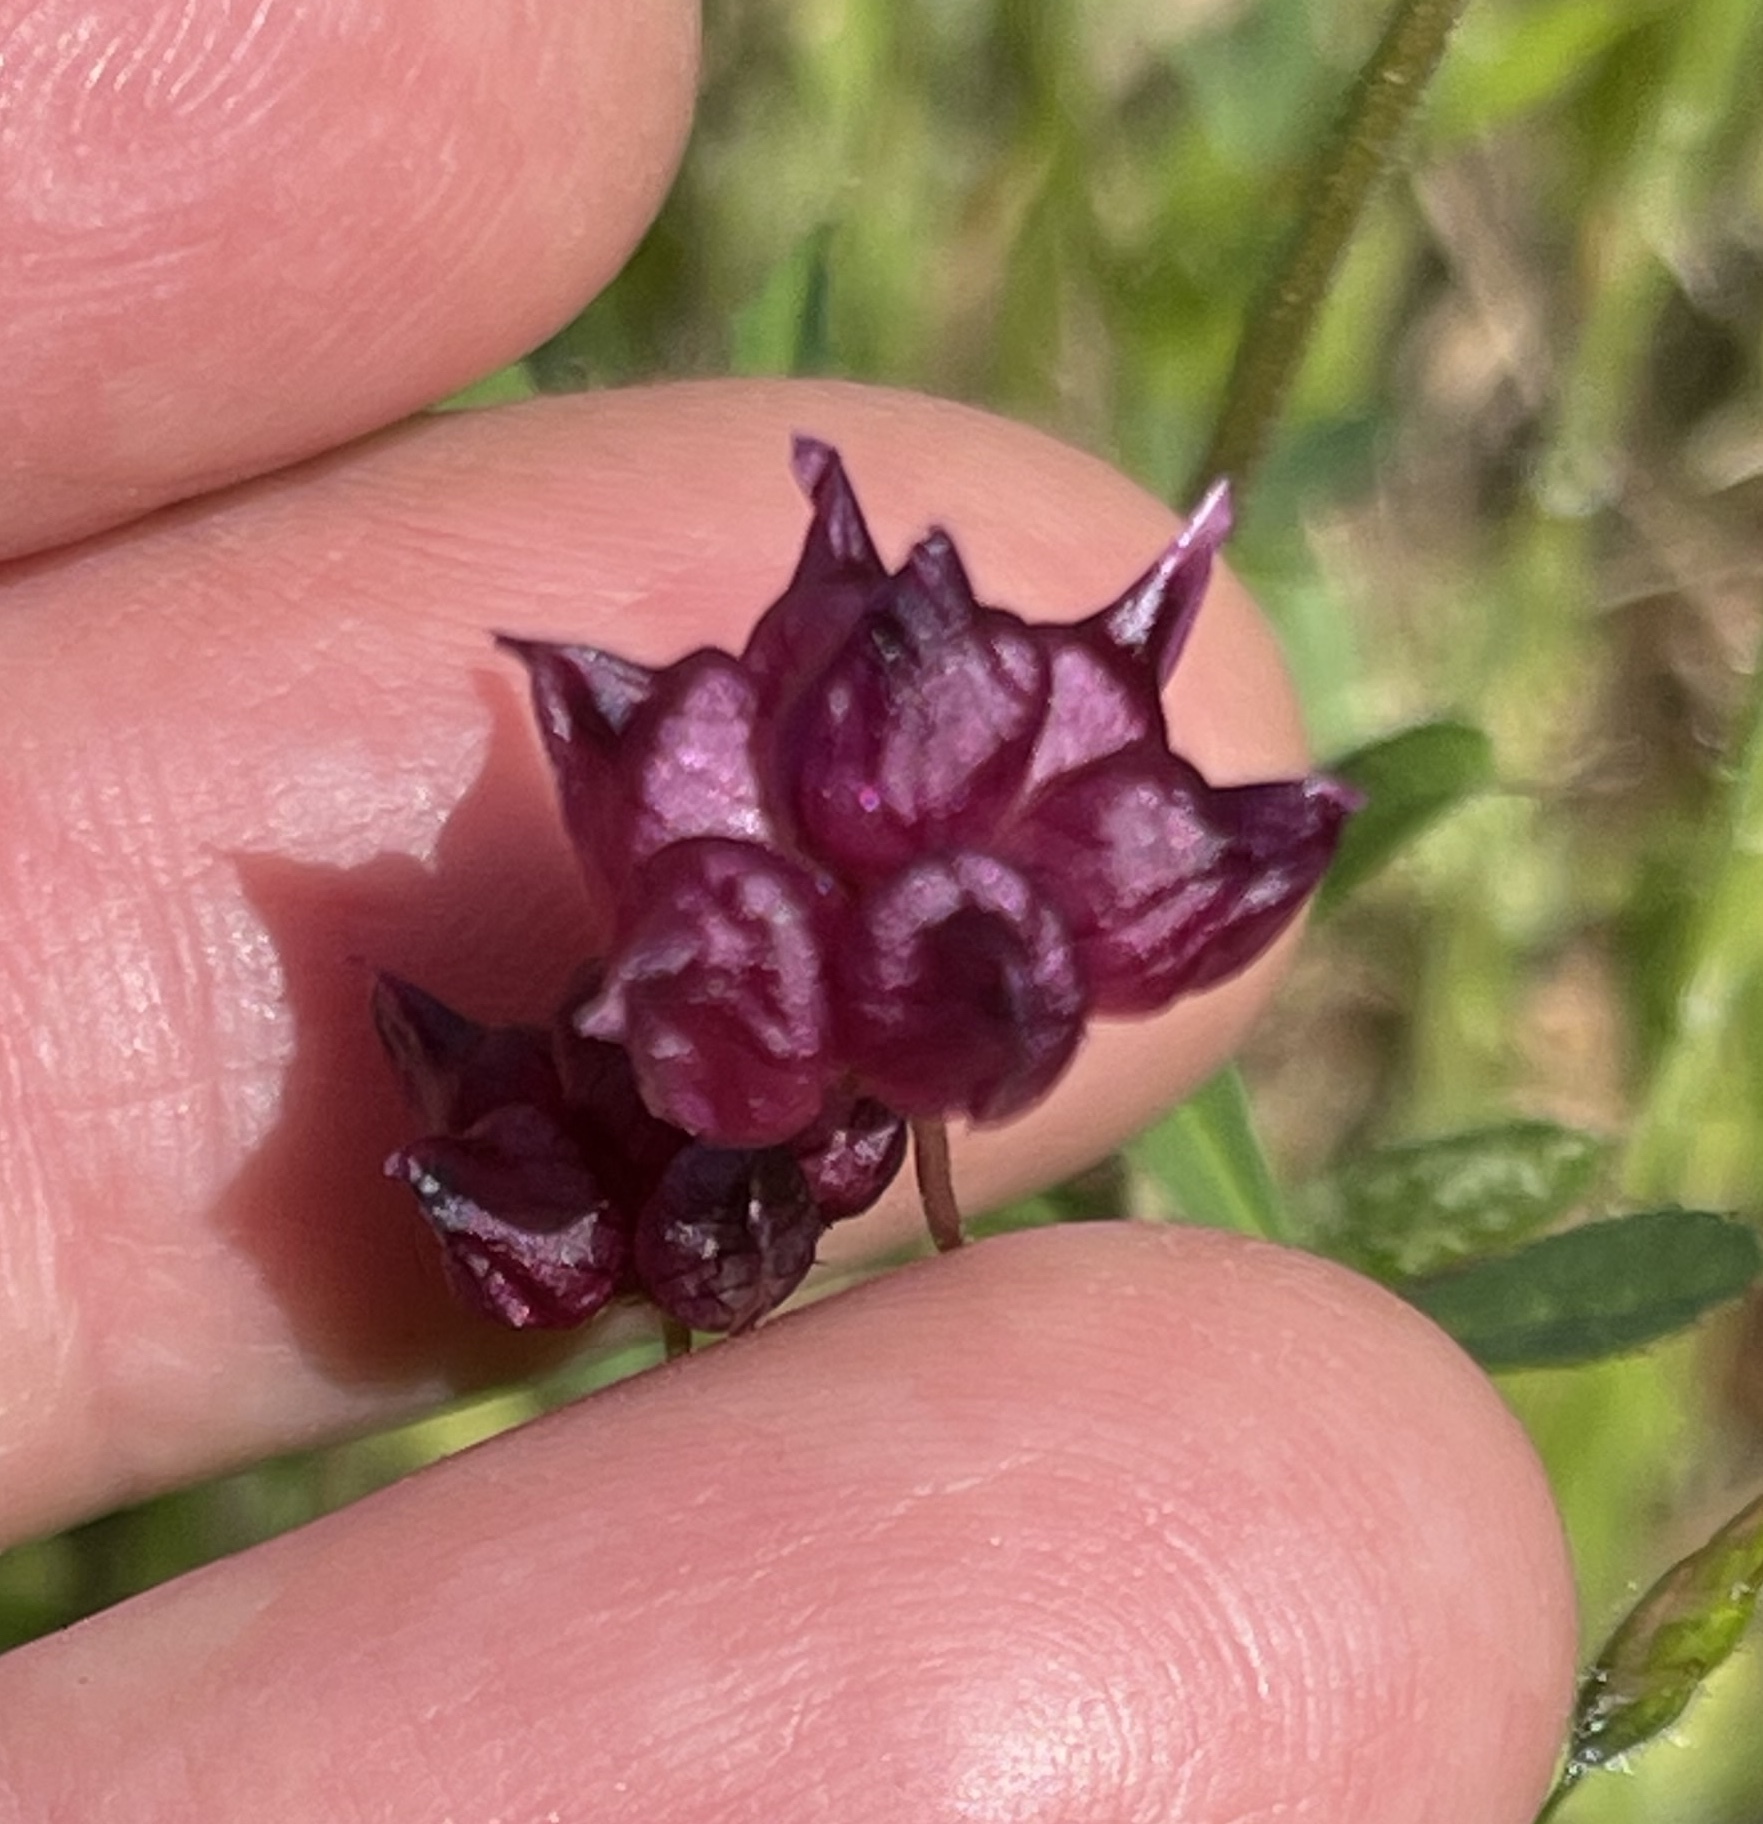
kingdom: Plantae
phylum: Tracheophyta
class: Magnoliopsida
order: Fabales
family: Fabaceae
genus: Trifolium
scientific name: Trifolium depauperatum
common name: Poverty clover
